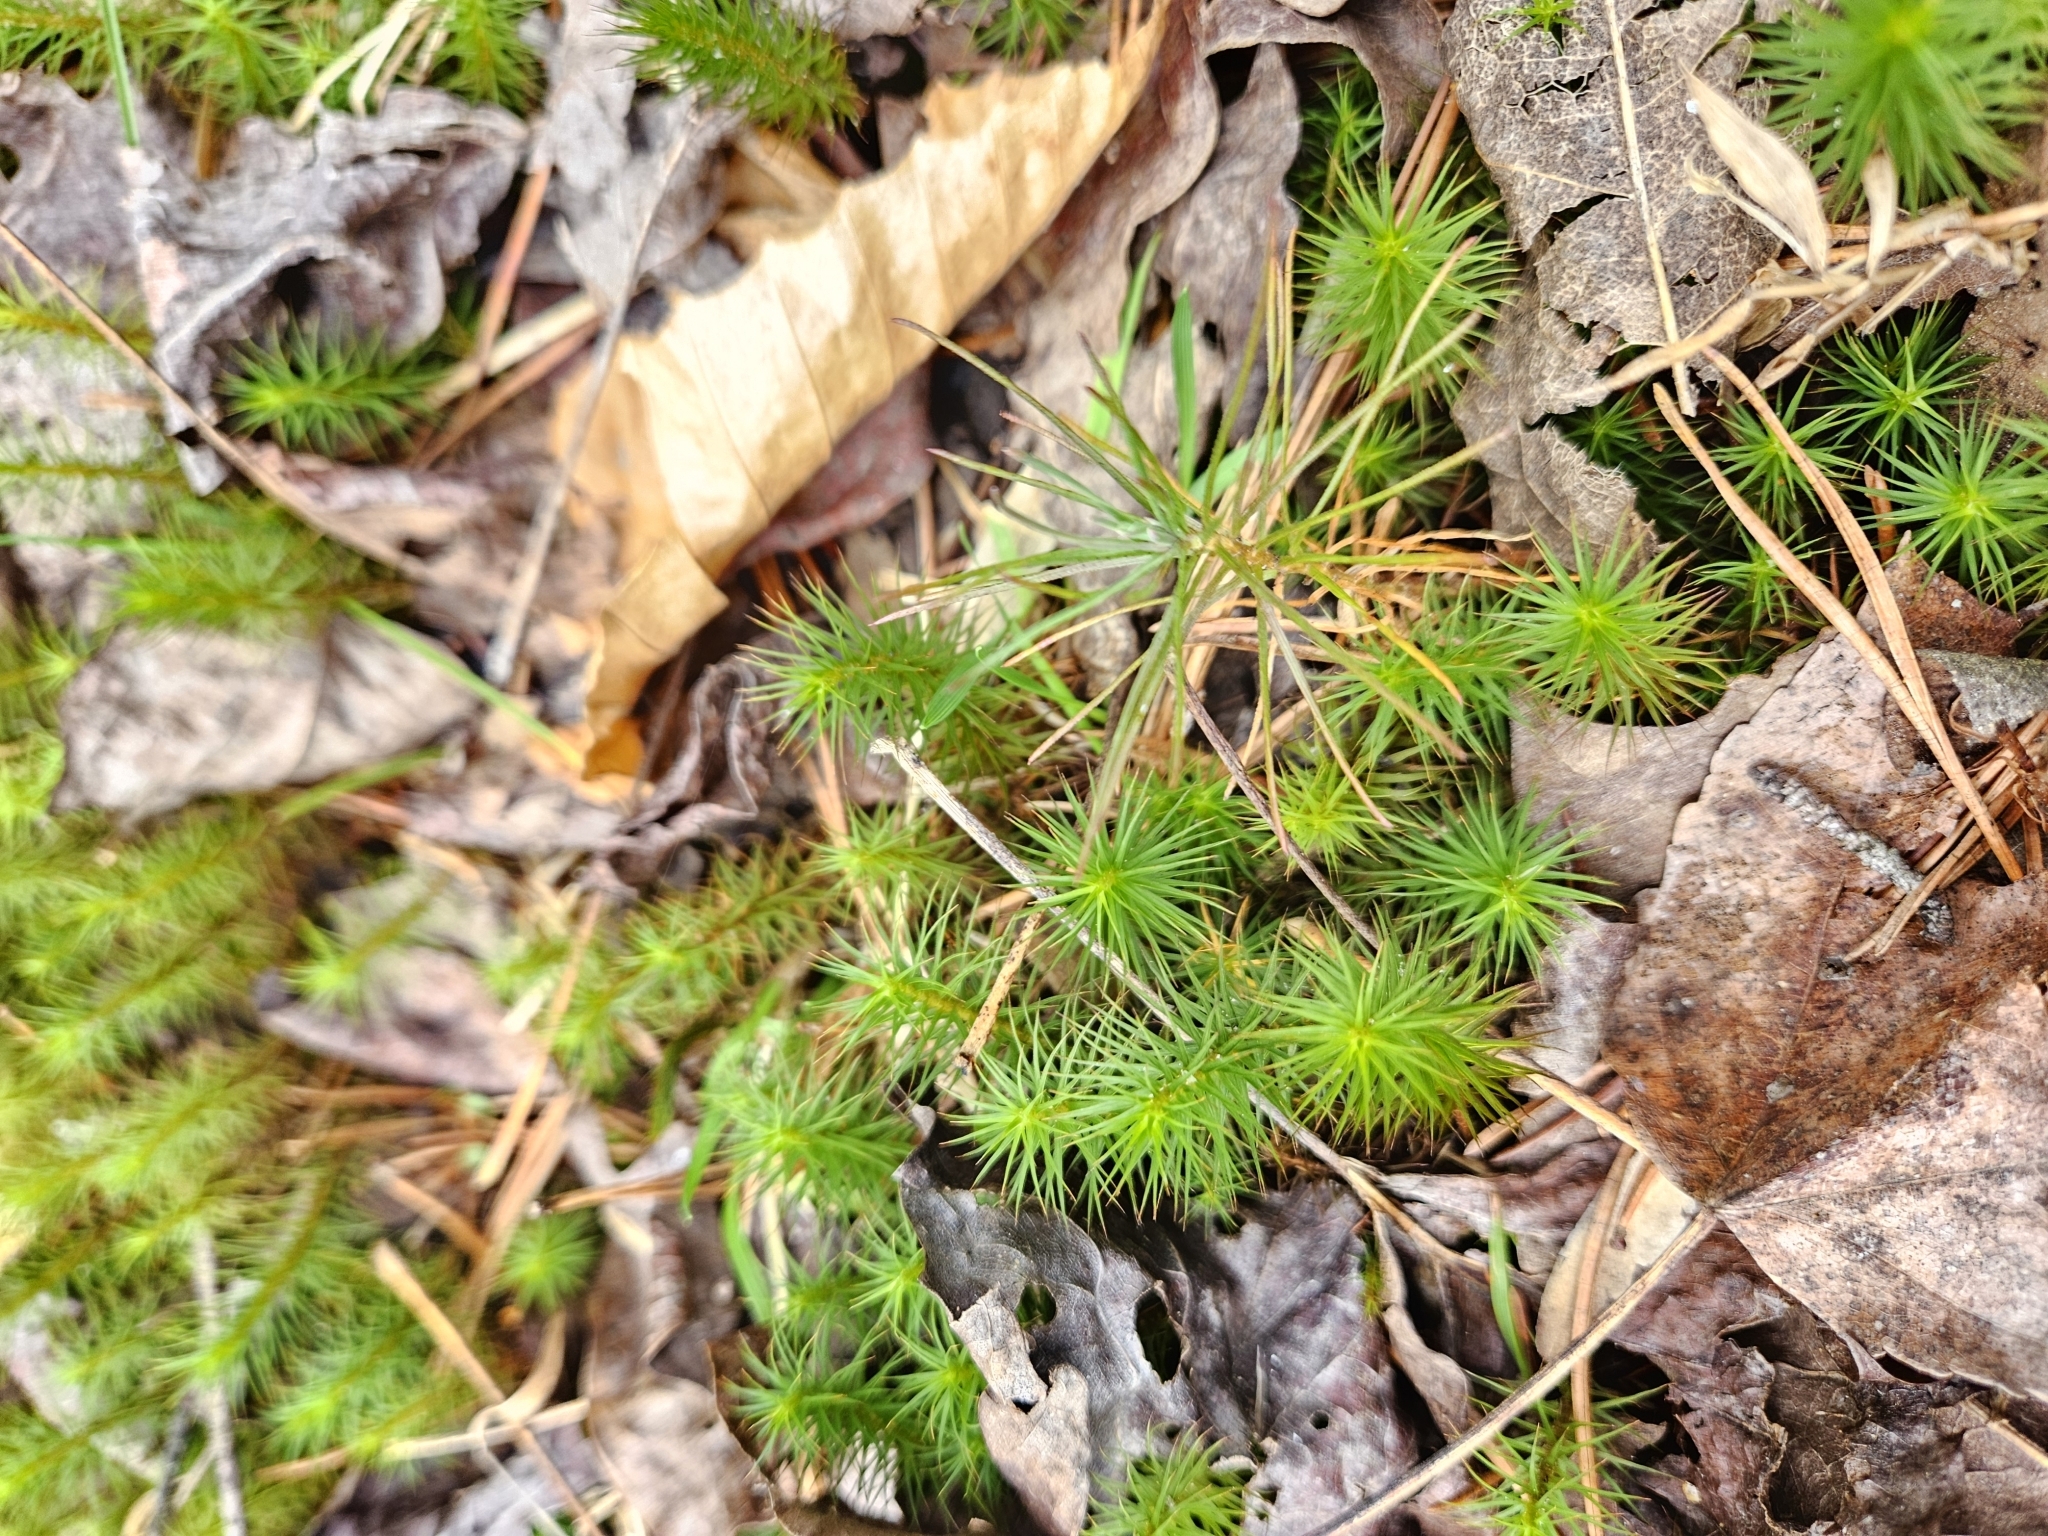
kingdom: Plantae
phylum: Bryophyta
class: Polytrichopsida
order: Polytrichales
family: Polytrichaceae
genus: Polytrichum
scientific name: Polytrichum commune
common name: Common haircap
